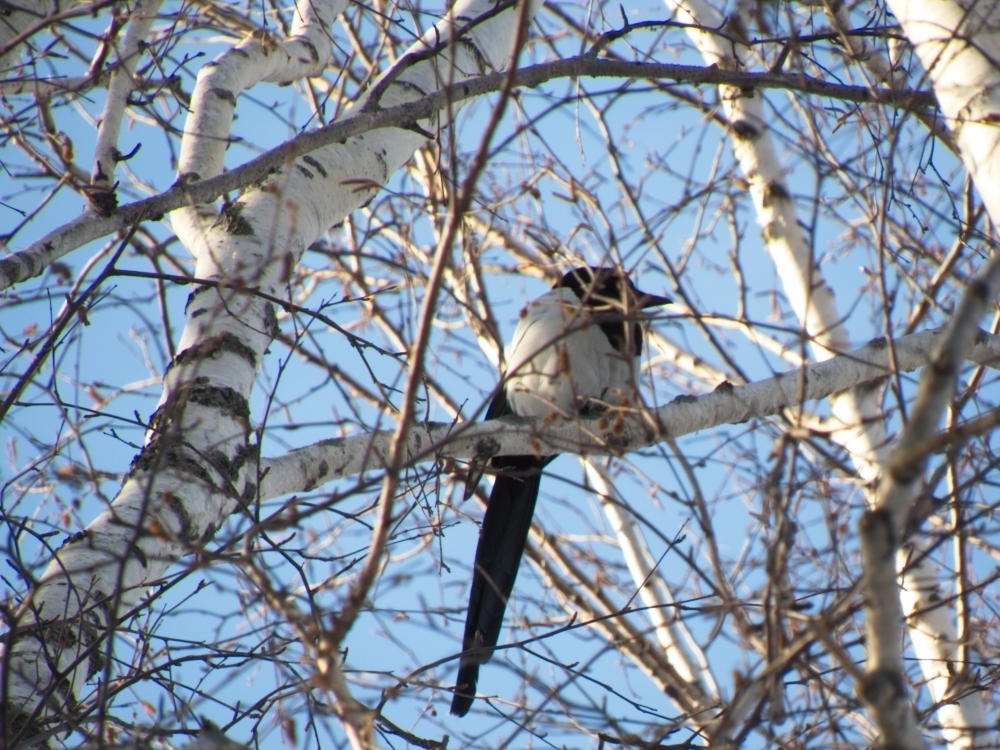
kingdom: Animalia
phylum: Chordata
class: Aves
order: Passeriformes
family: Corvidae
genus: Pica
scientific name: Pica pica
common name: Eurasian magpie
